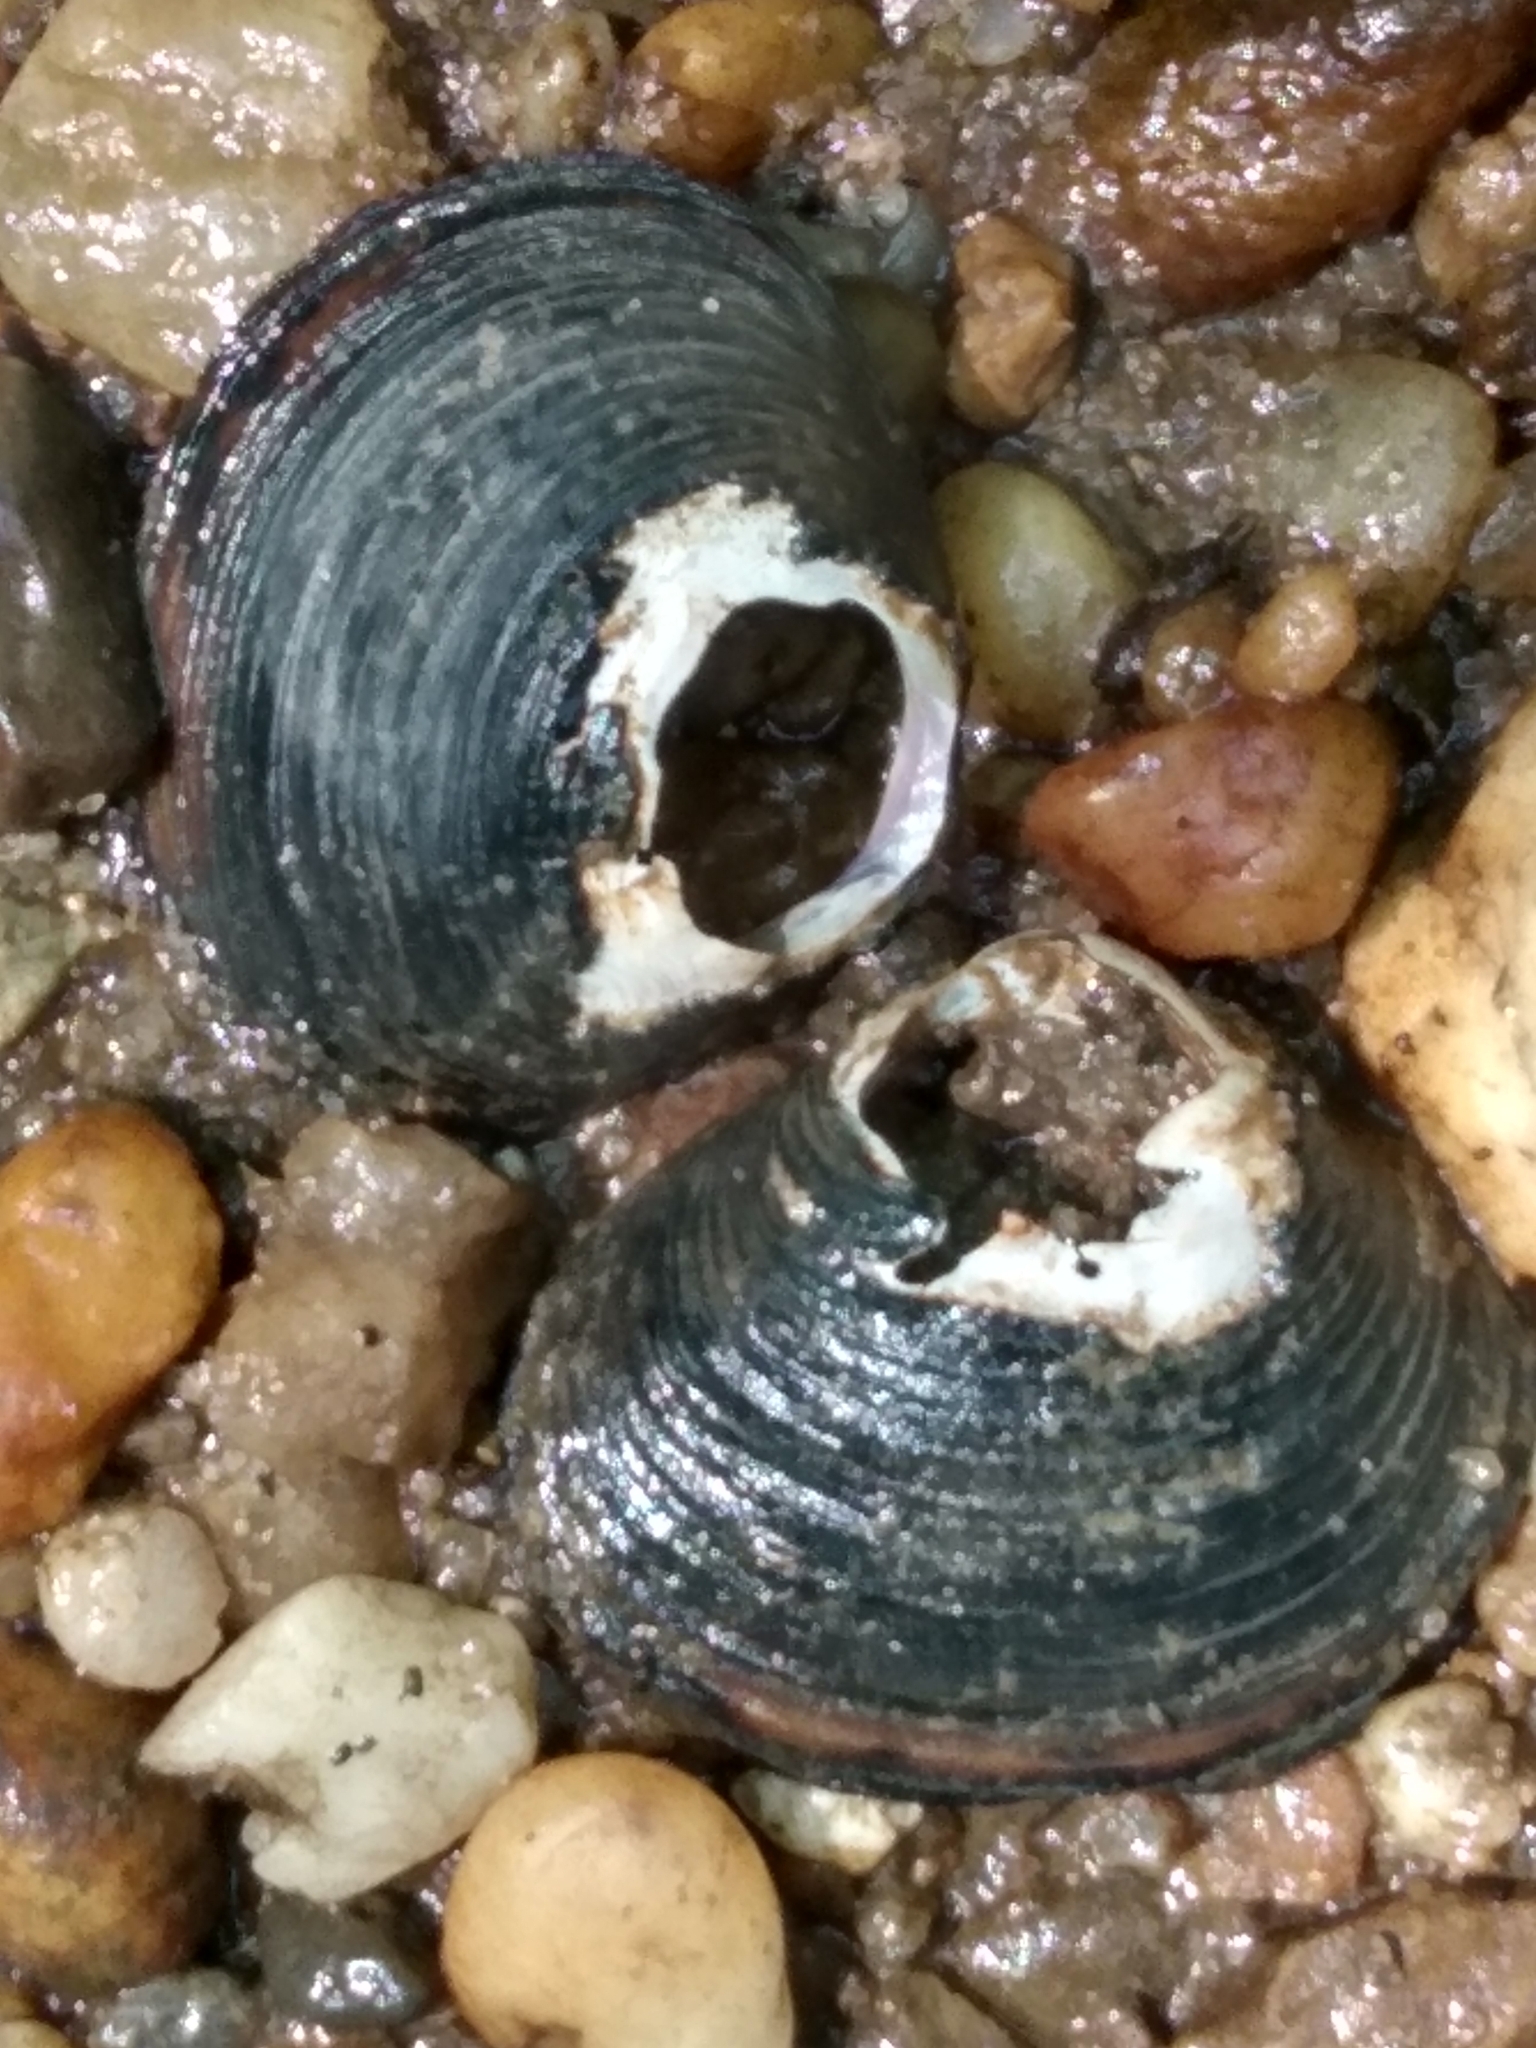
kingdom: Animalia
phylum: Mollusca
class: Bivalvia
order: Venerida
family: Cyrenidae
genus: Corbicula
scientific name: Corbicula fluminea
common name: Asian clam
